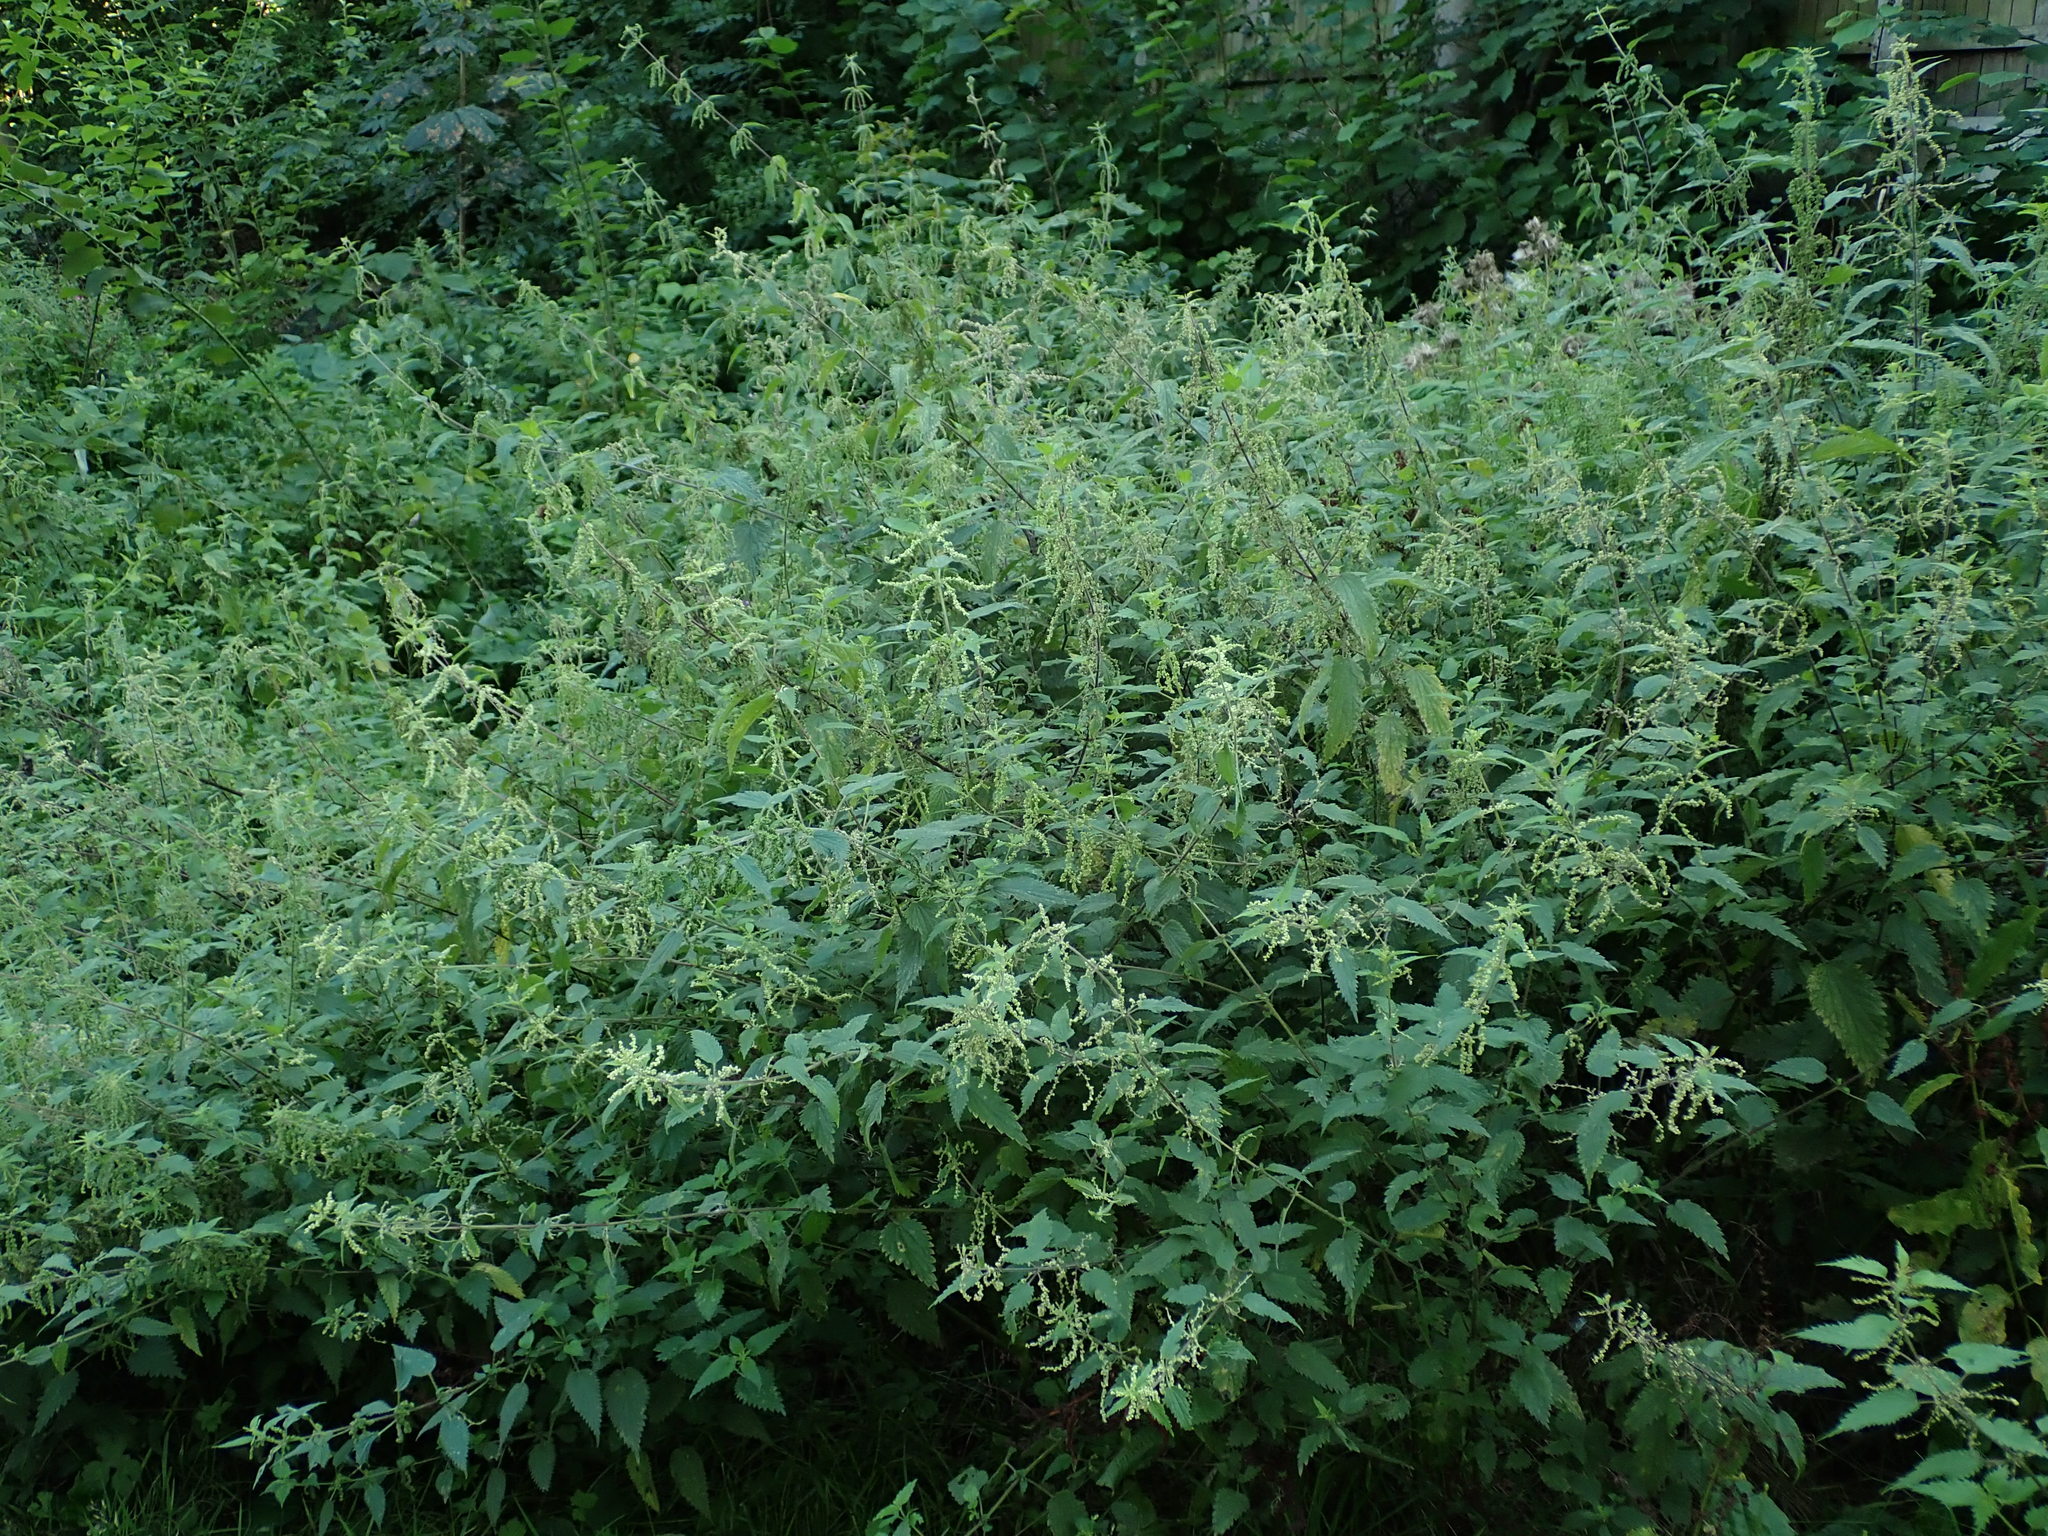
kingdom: Plantae
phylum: Tracheophyta
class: Magnoliopsida
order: Rosales
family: Urticaceae
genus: Urtica
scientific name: Urtica dioica
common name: Common nettle
